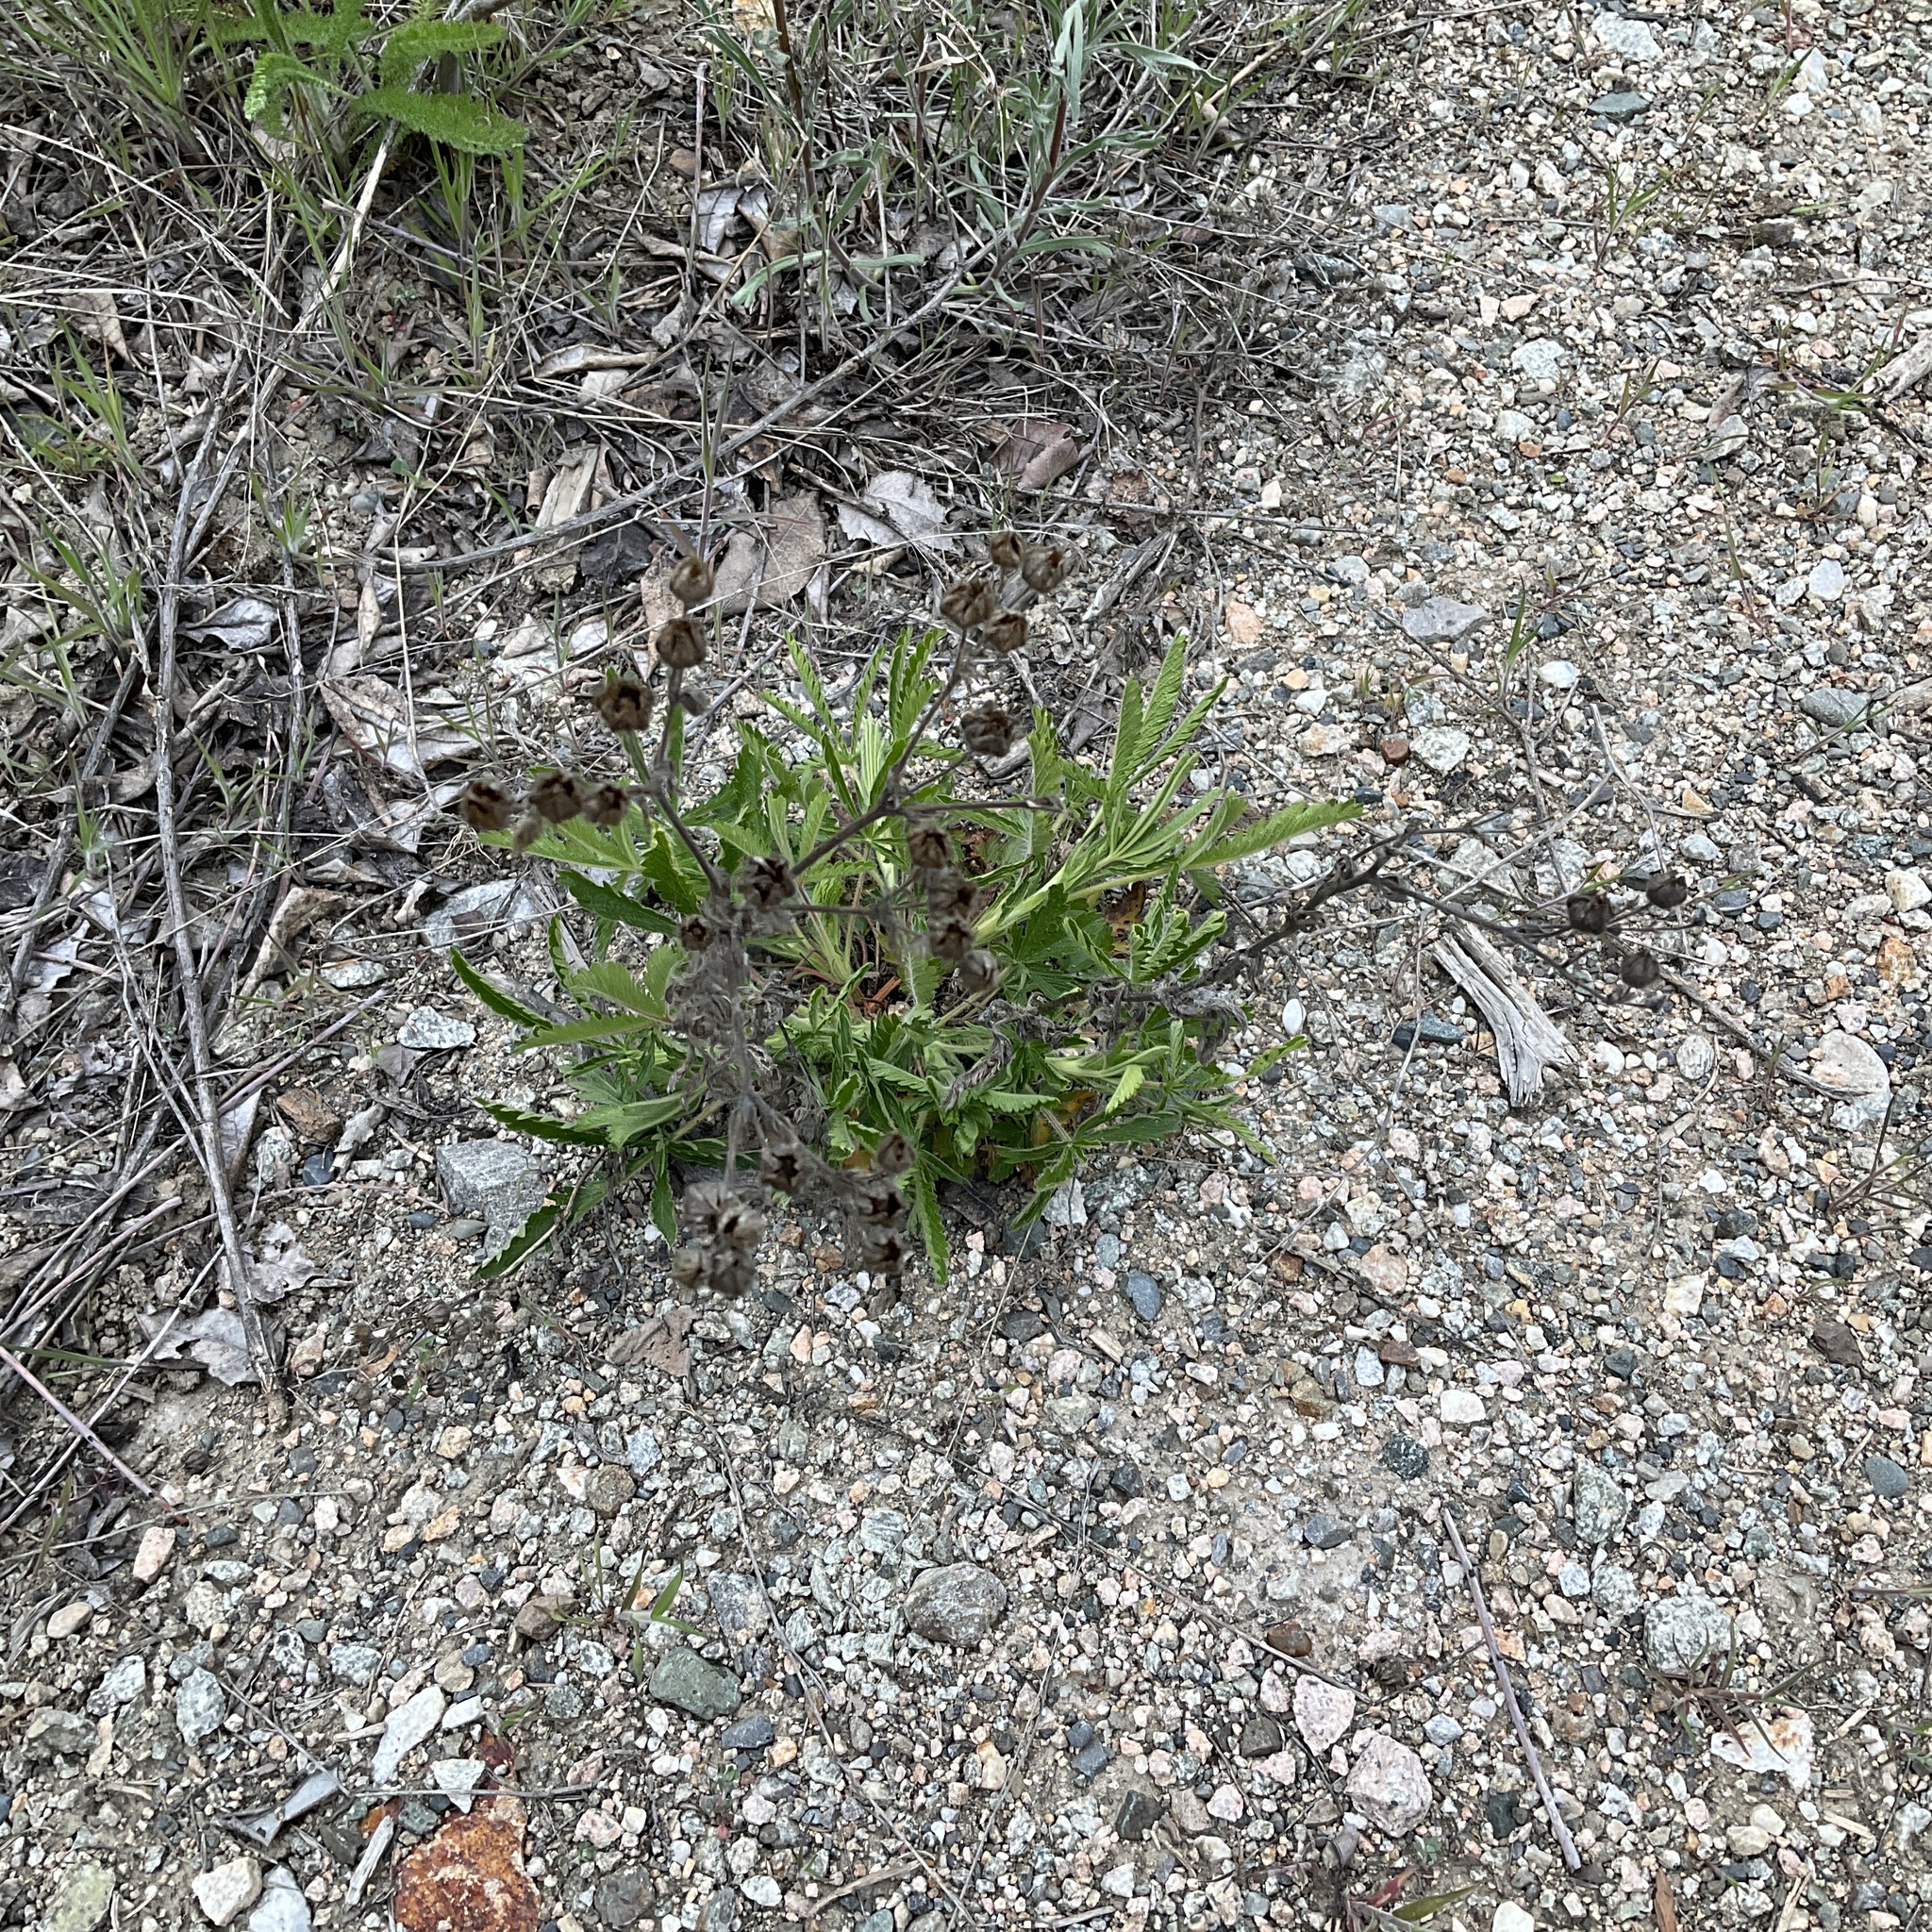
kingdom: Plantae
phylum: Tracheophyta
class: Magnoliopsida
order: Rosales
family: Rosaceae
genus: Potentilla
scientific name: Potentilla recta
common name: Sulphur cinquefoil
